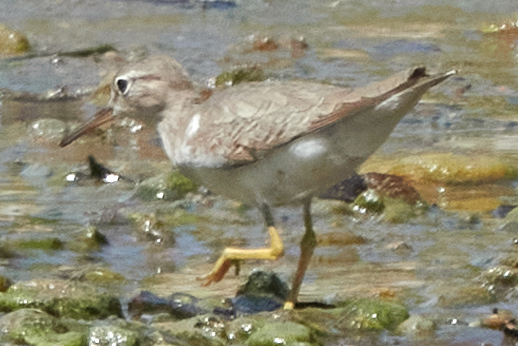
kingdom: Animalia
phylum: Chordata
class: Aves
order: Charadriiformes
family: Scolopacidae
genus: Actitis
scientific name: Actitis macularius
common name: Spotted sandpiper
